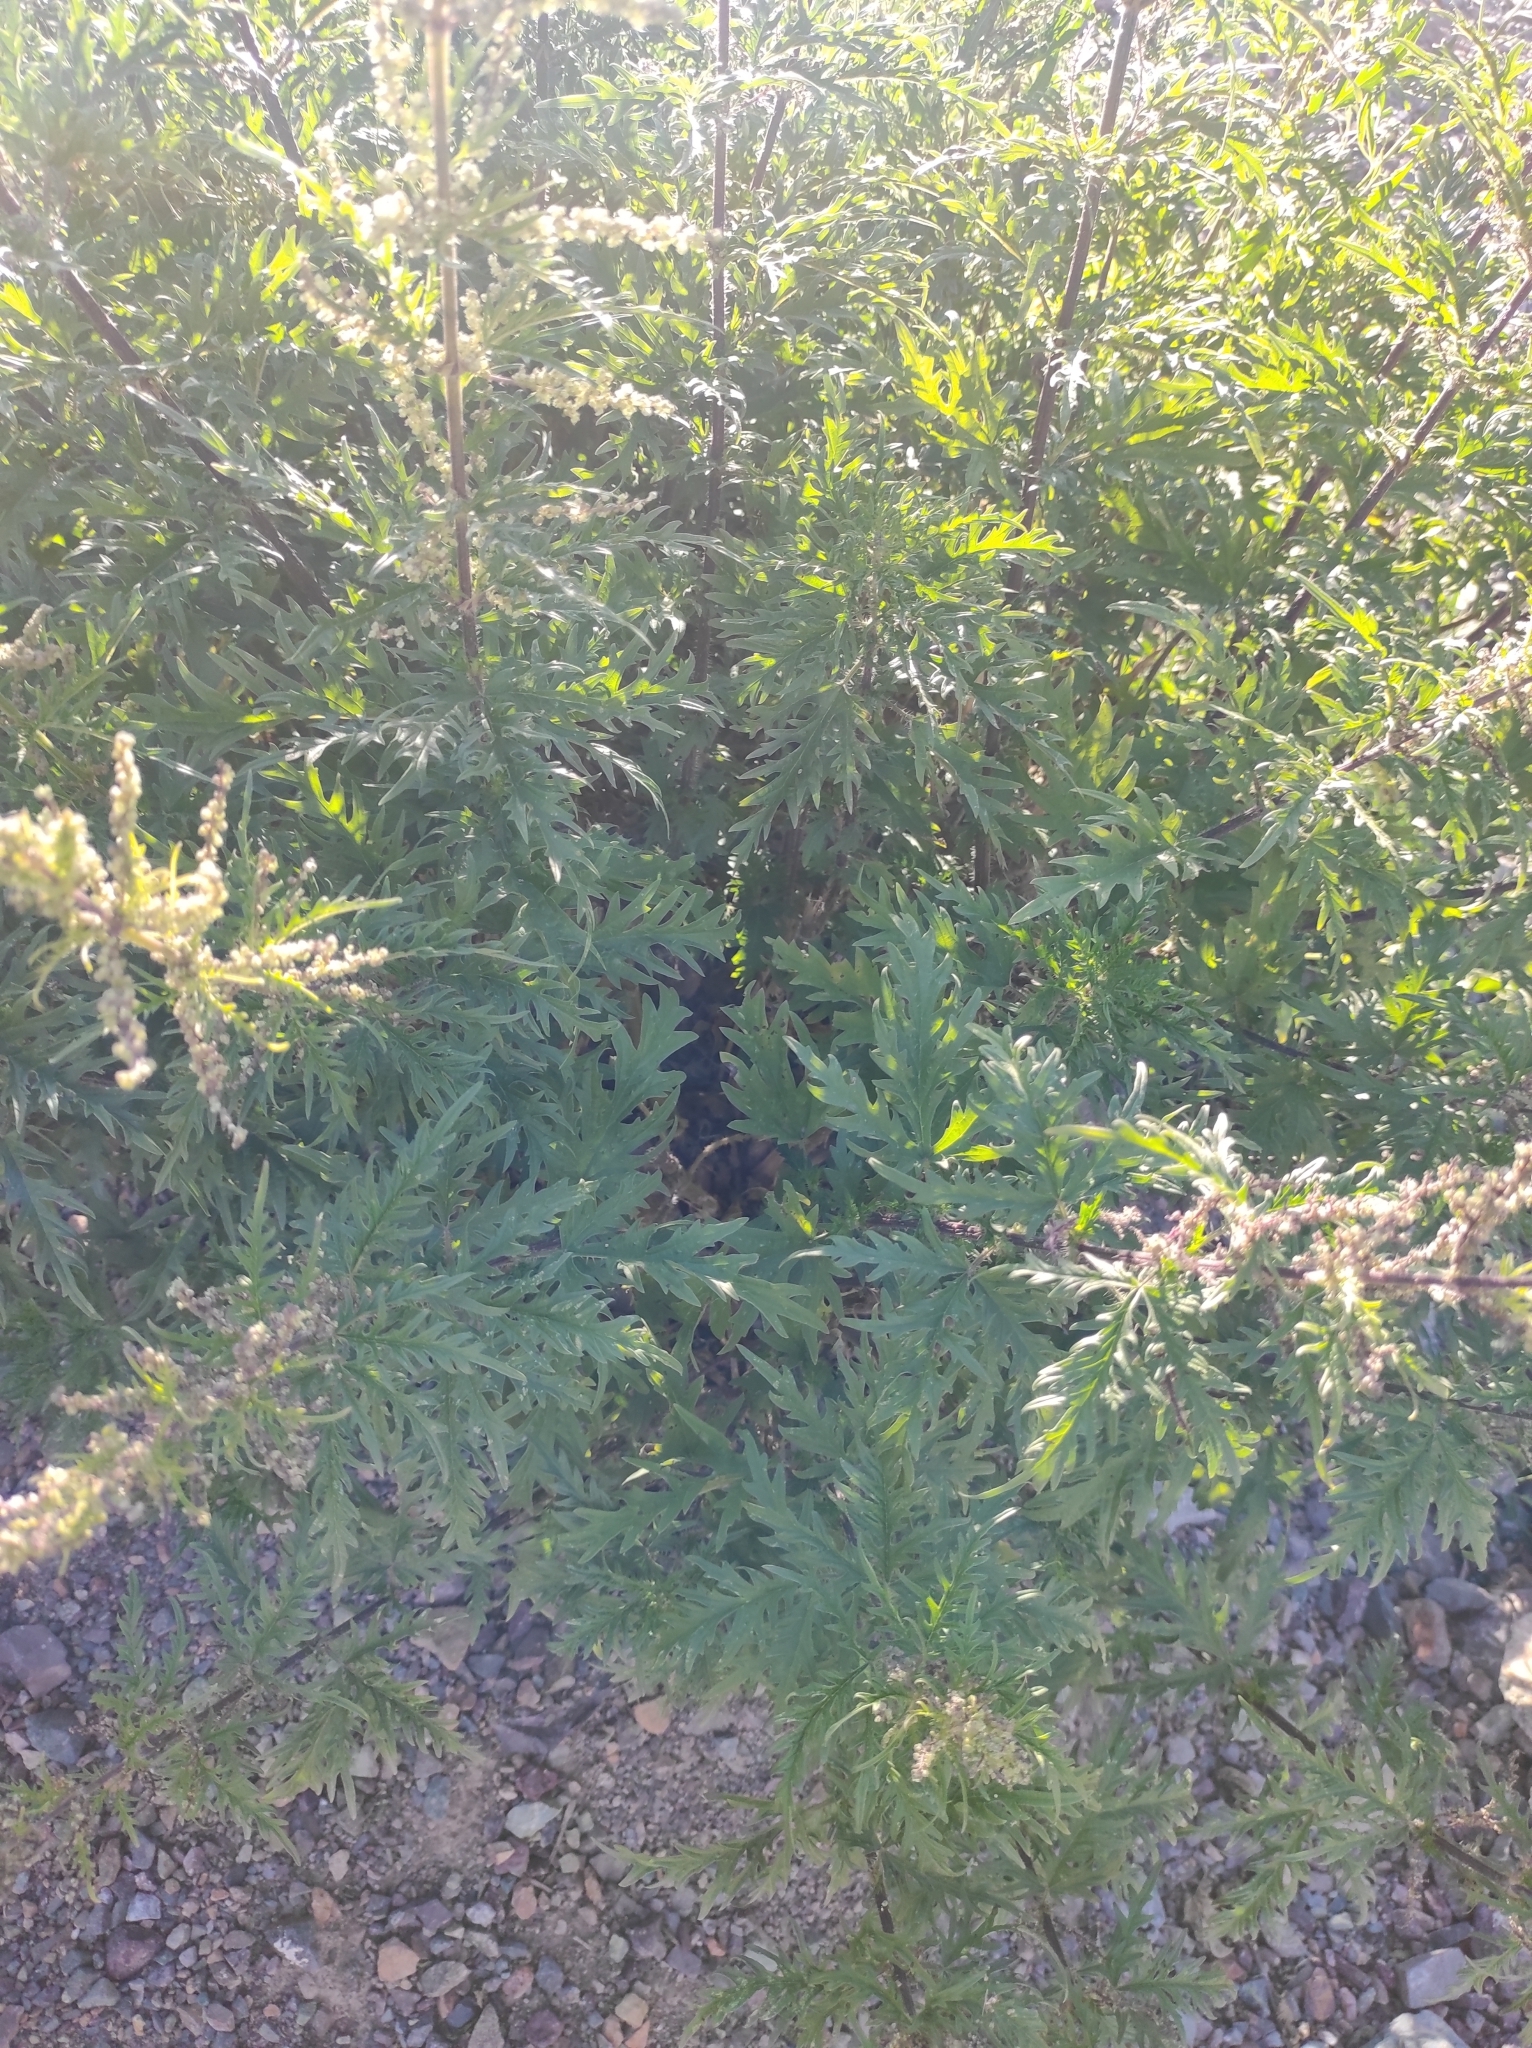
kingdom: Plantae
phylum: Tracheophyta
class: Magnoliopsida
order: Rosales
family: Urticaceae
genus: Urtica
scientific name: Urtica cannabina
